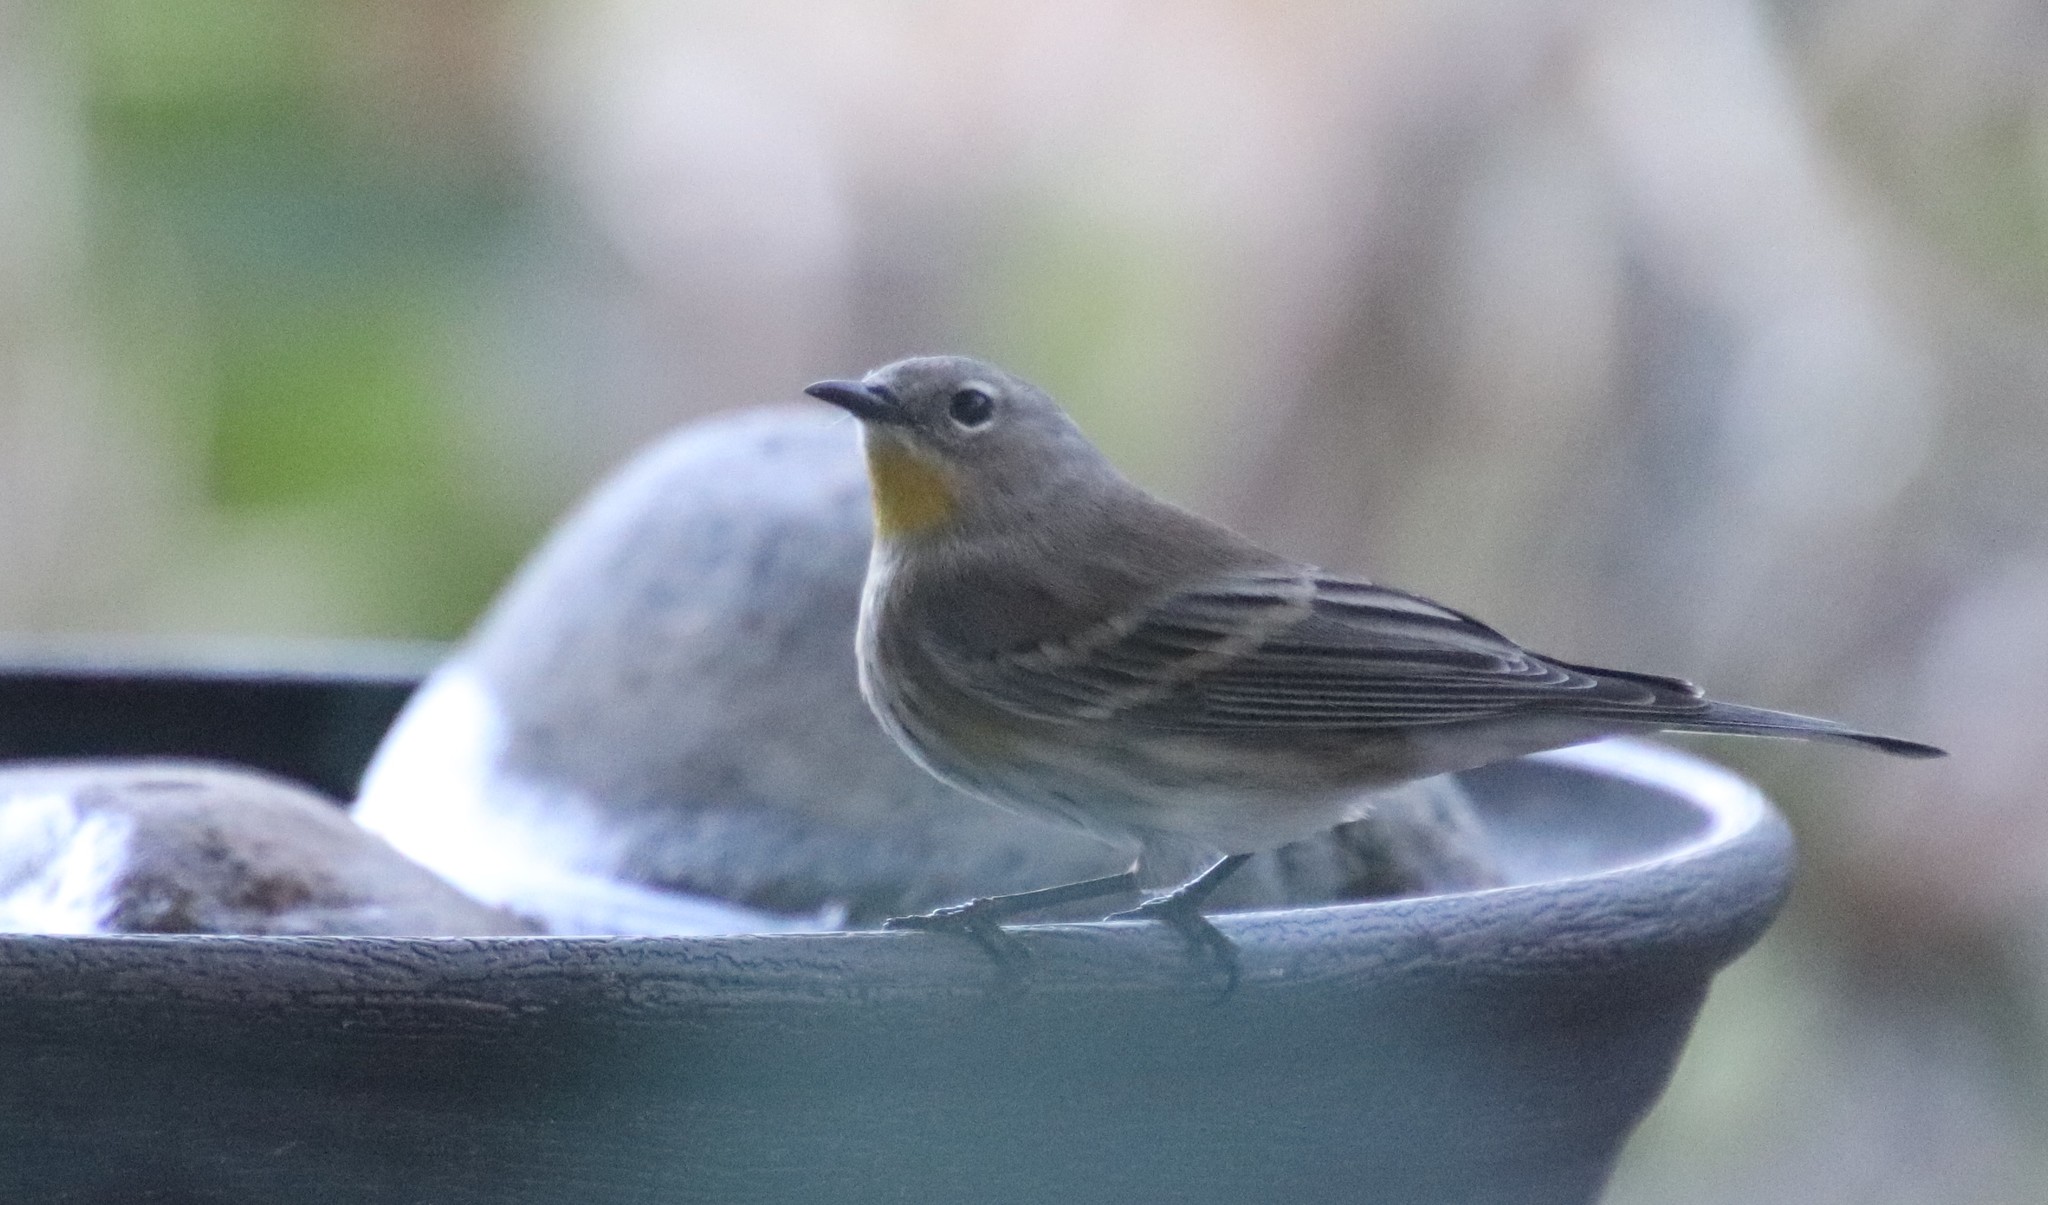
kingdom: Animalia
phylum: Chordata
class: Aves
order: Passeriformes
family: Parulidae
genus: Setophaga
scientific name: Setophaga auduboni
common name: Audubon's warbler
